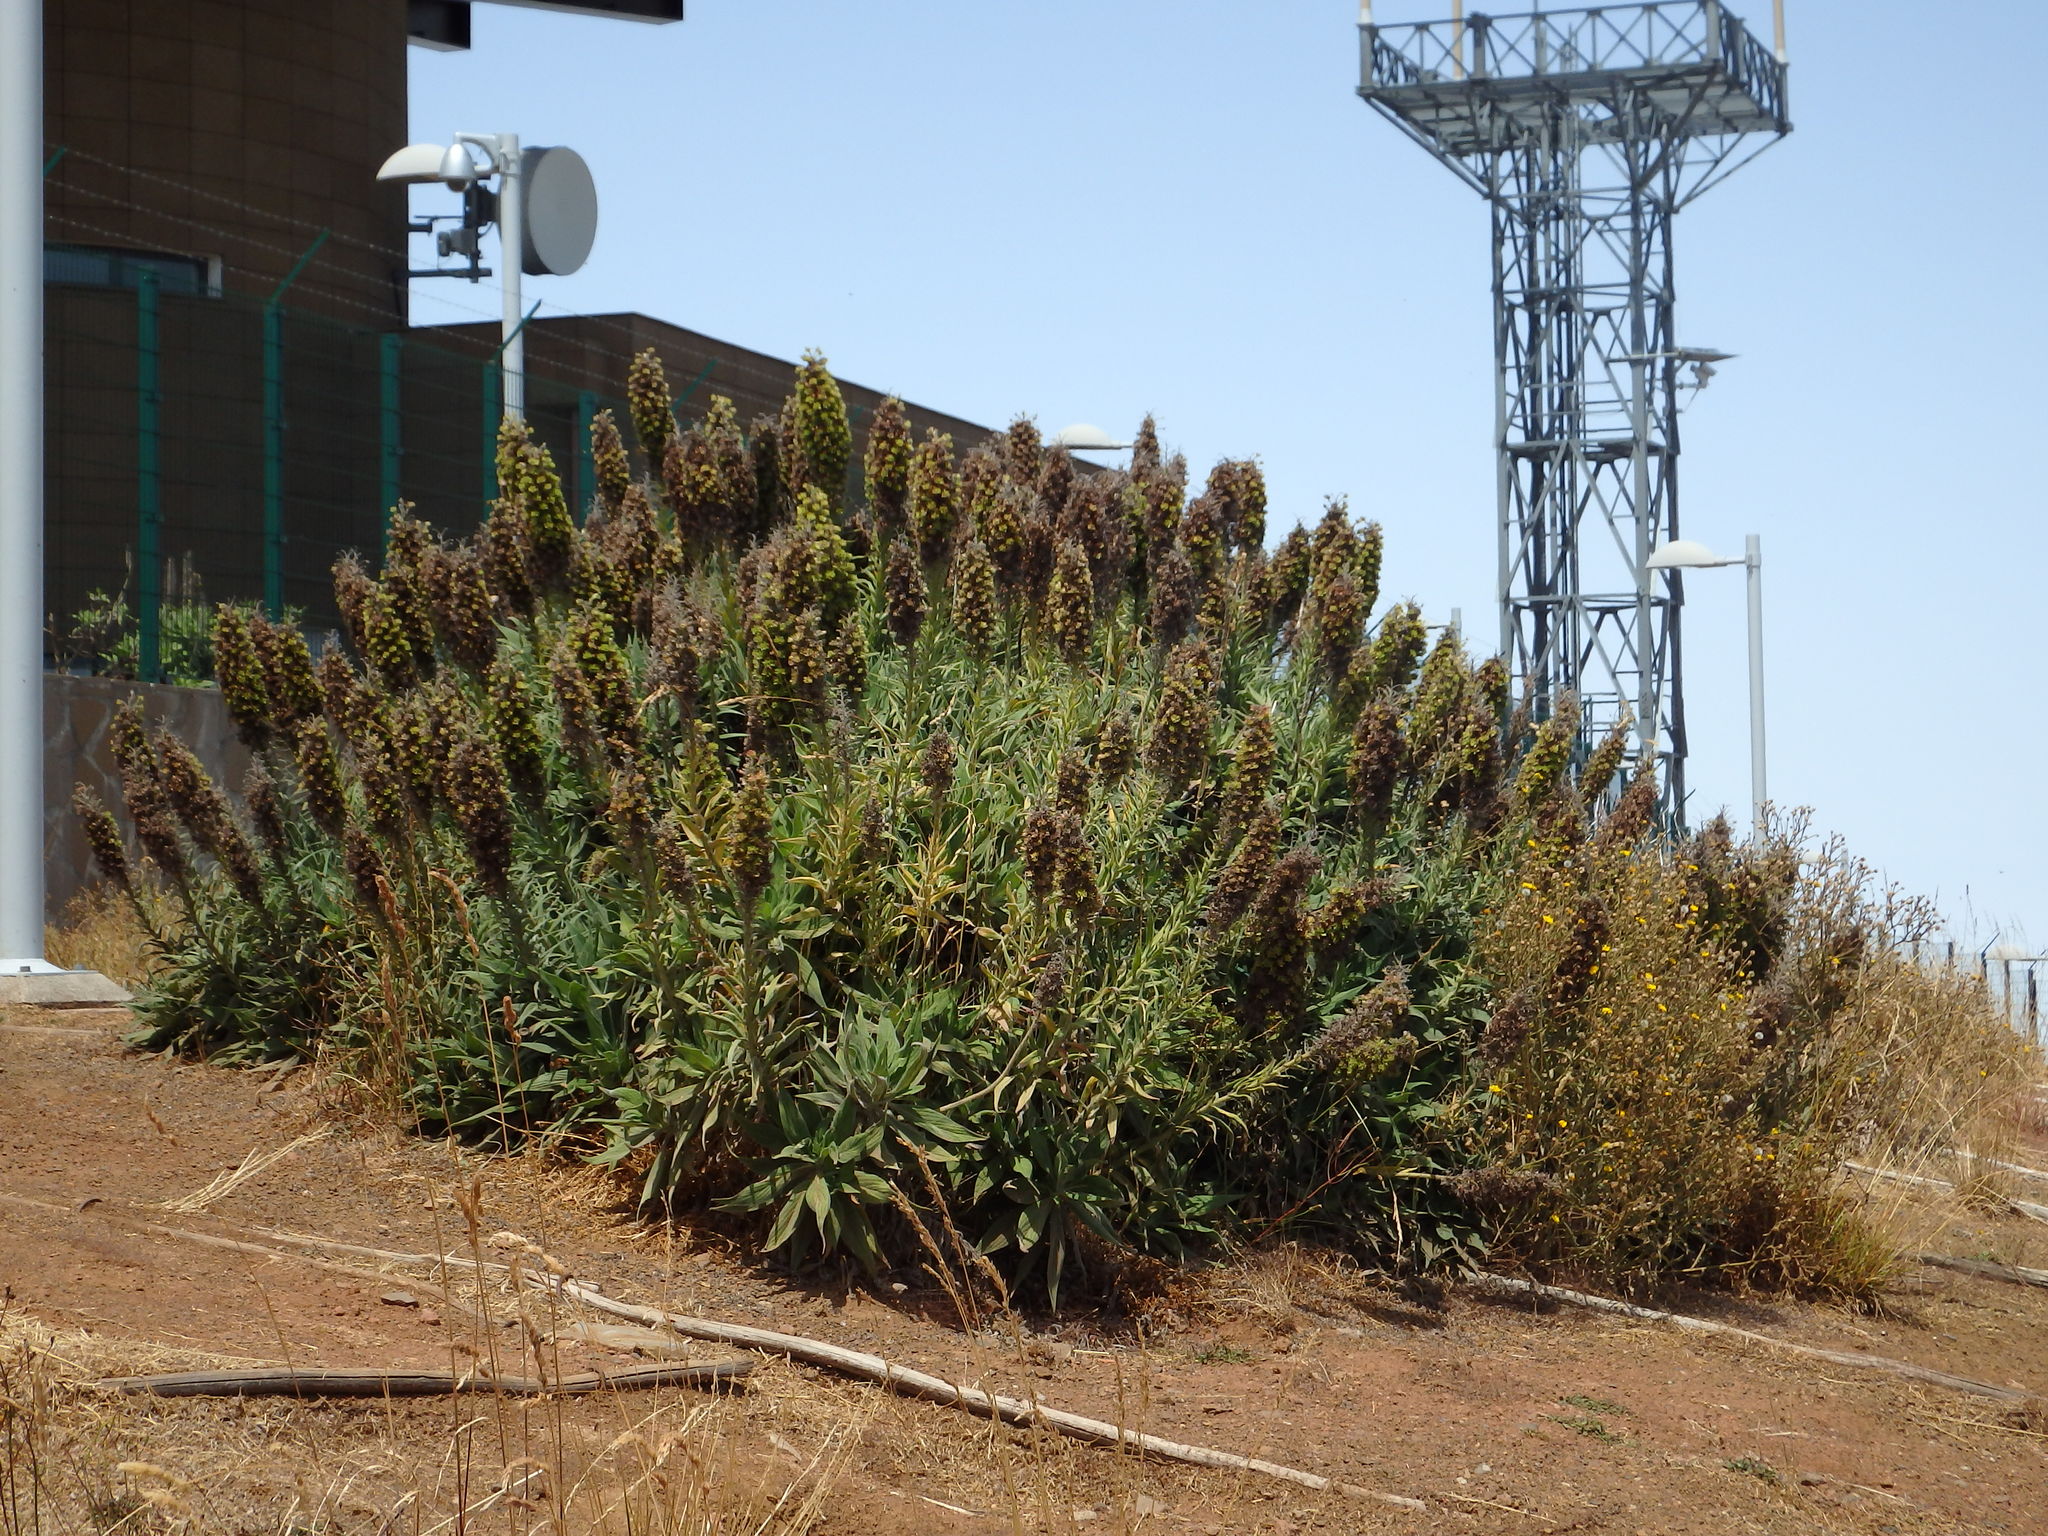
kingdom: Plantae
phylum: Tracheophyta
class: Magnoliopsida
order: Boraginales
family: Boraginaceae
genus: Echium
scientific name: Echium candicans
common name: Pride of madeira
